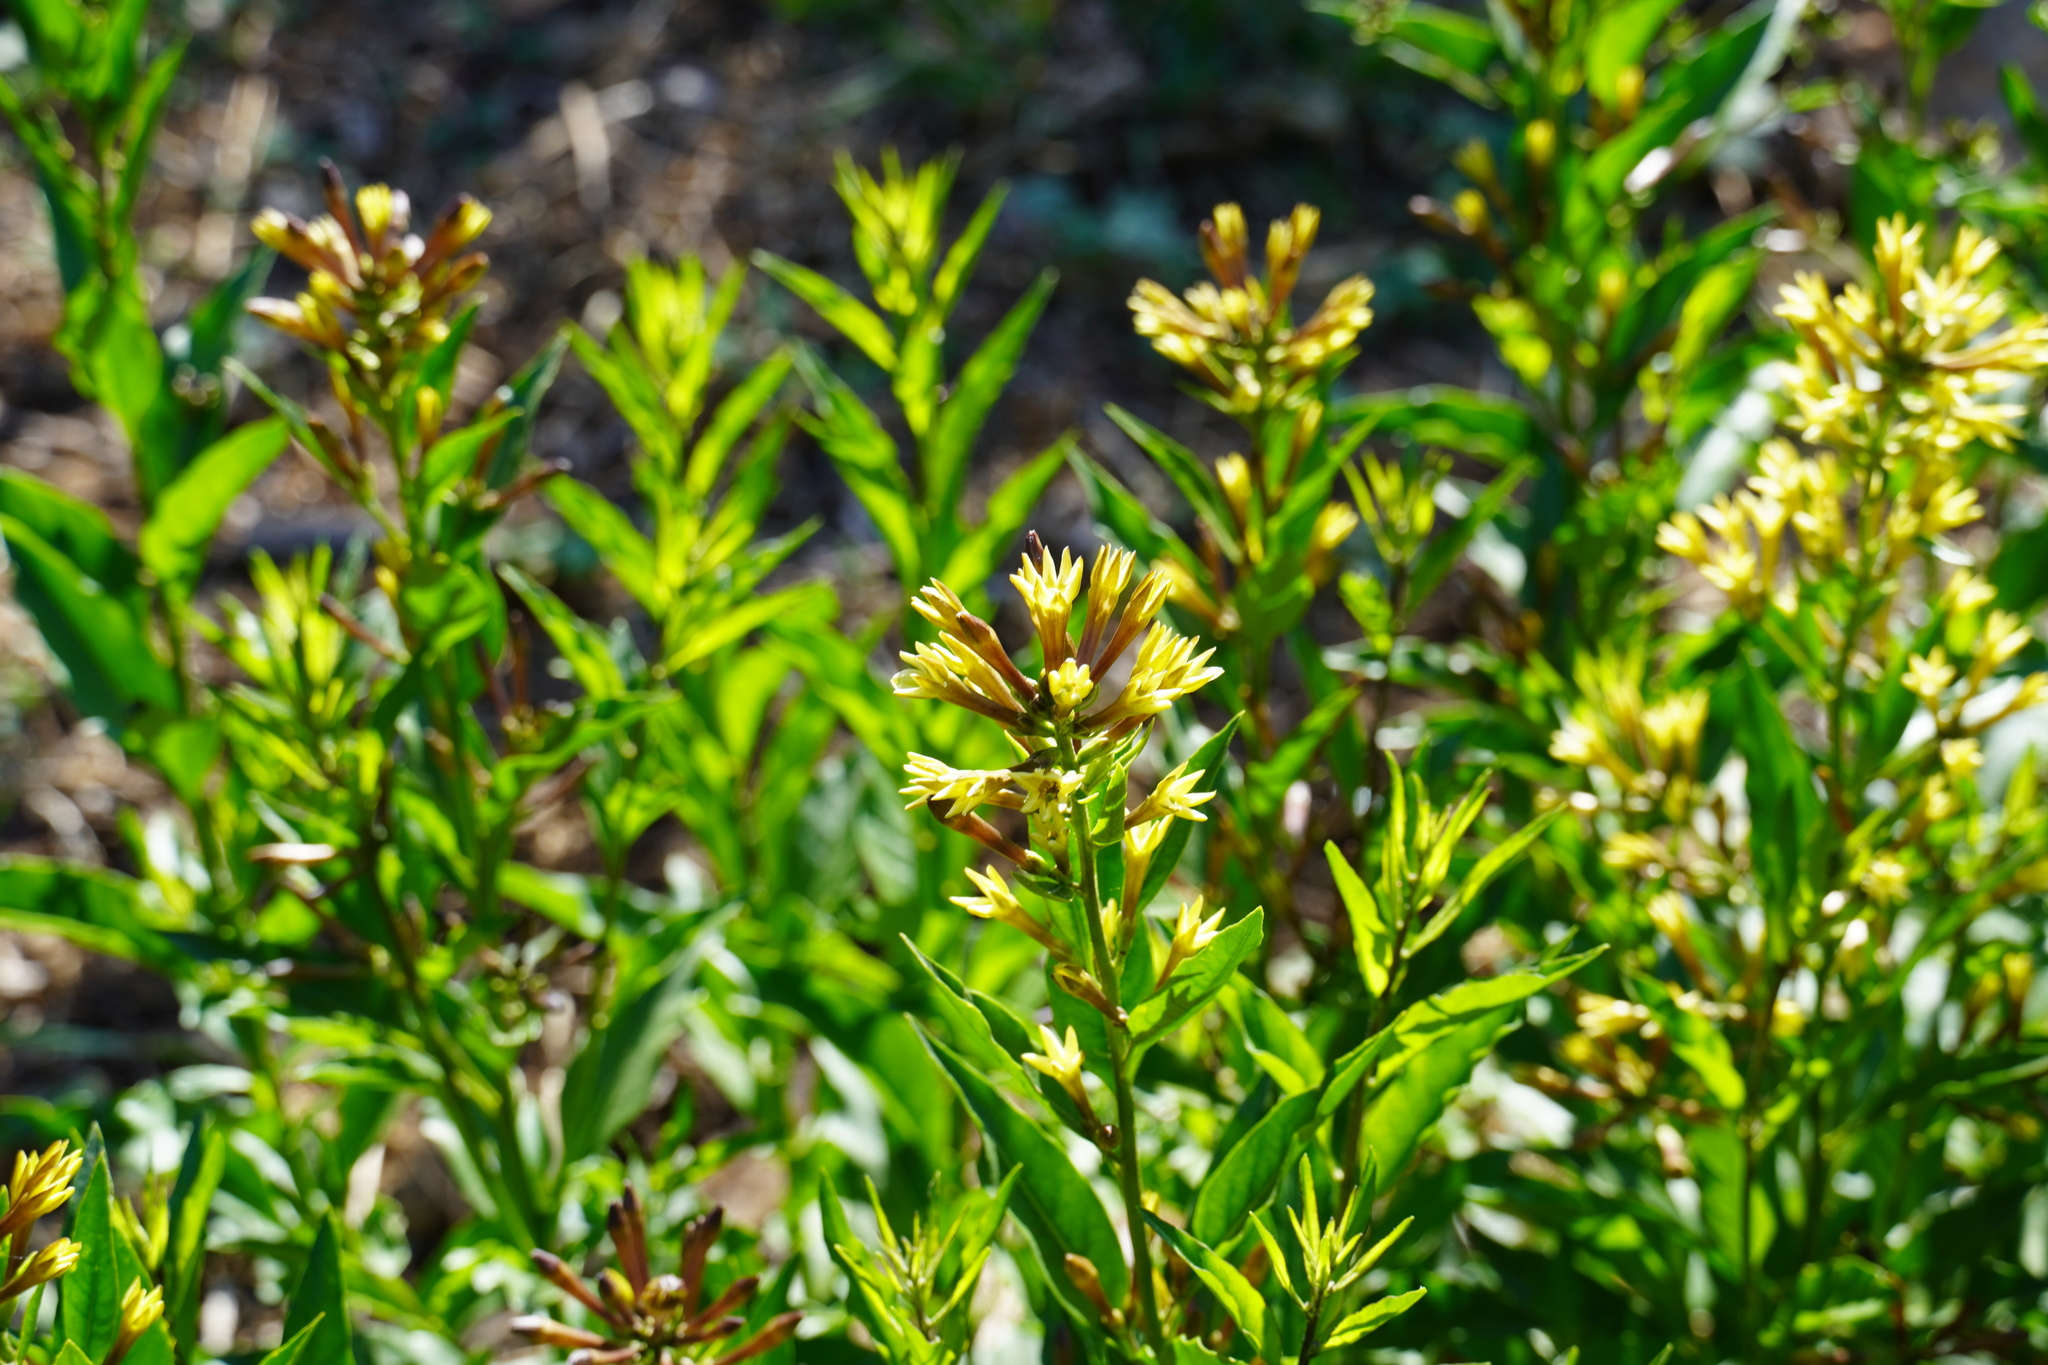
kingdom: Plantae
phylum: Tracheophyta
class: Magnoliopsida
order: Solanales
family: Solanaceae
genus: Cestrum
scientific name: Cestrum parqui
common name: Chilean cestrum
